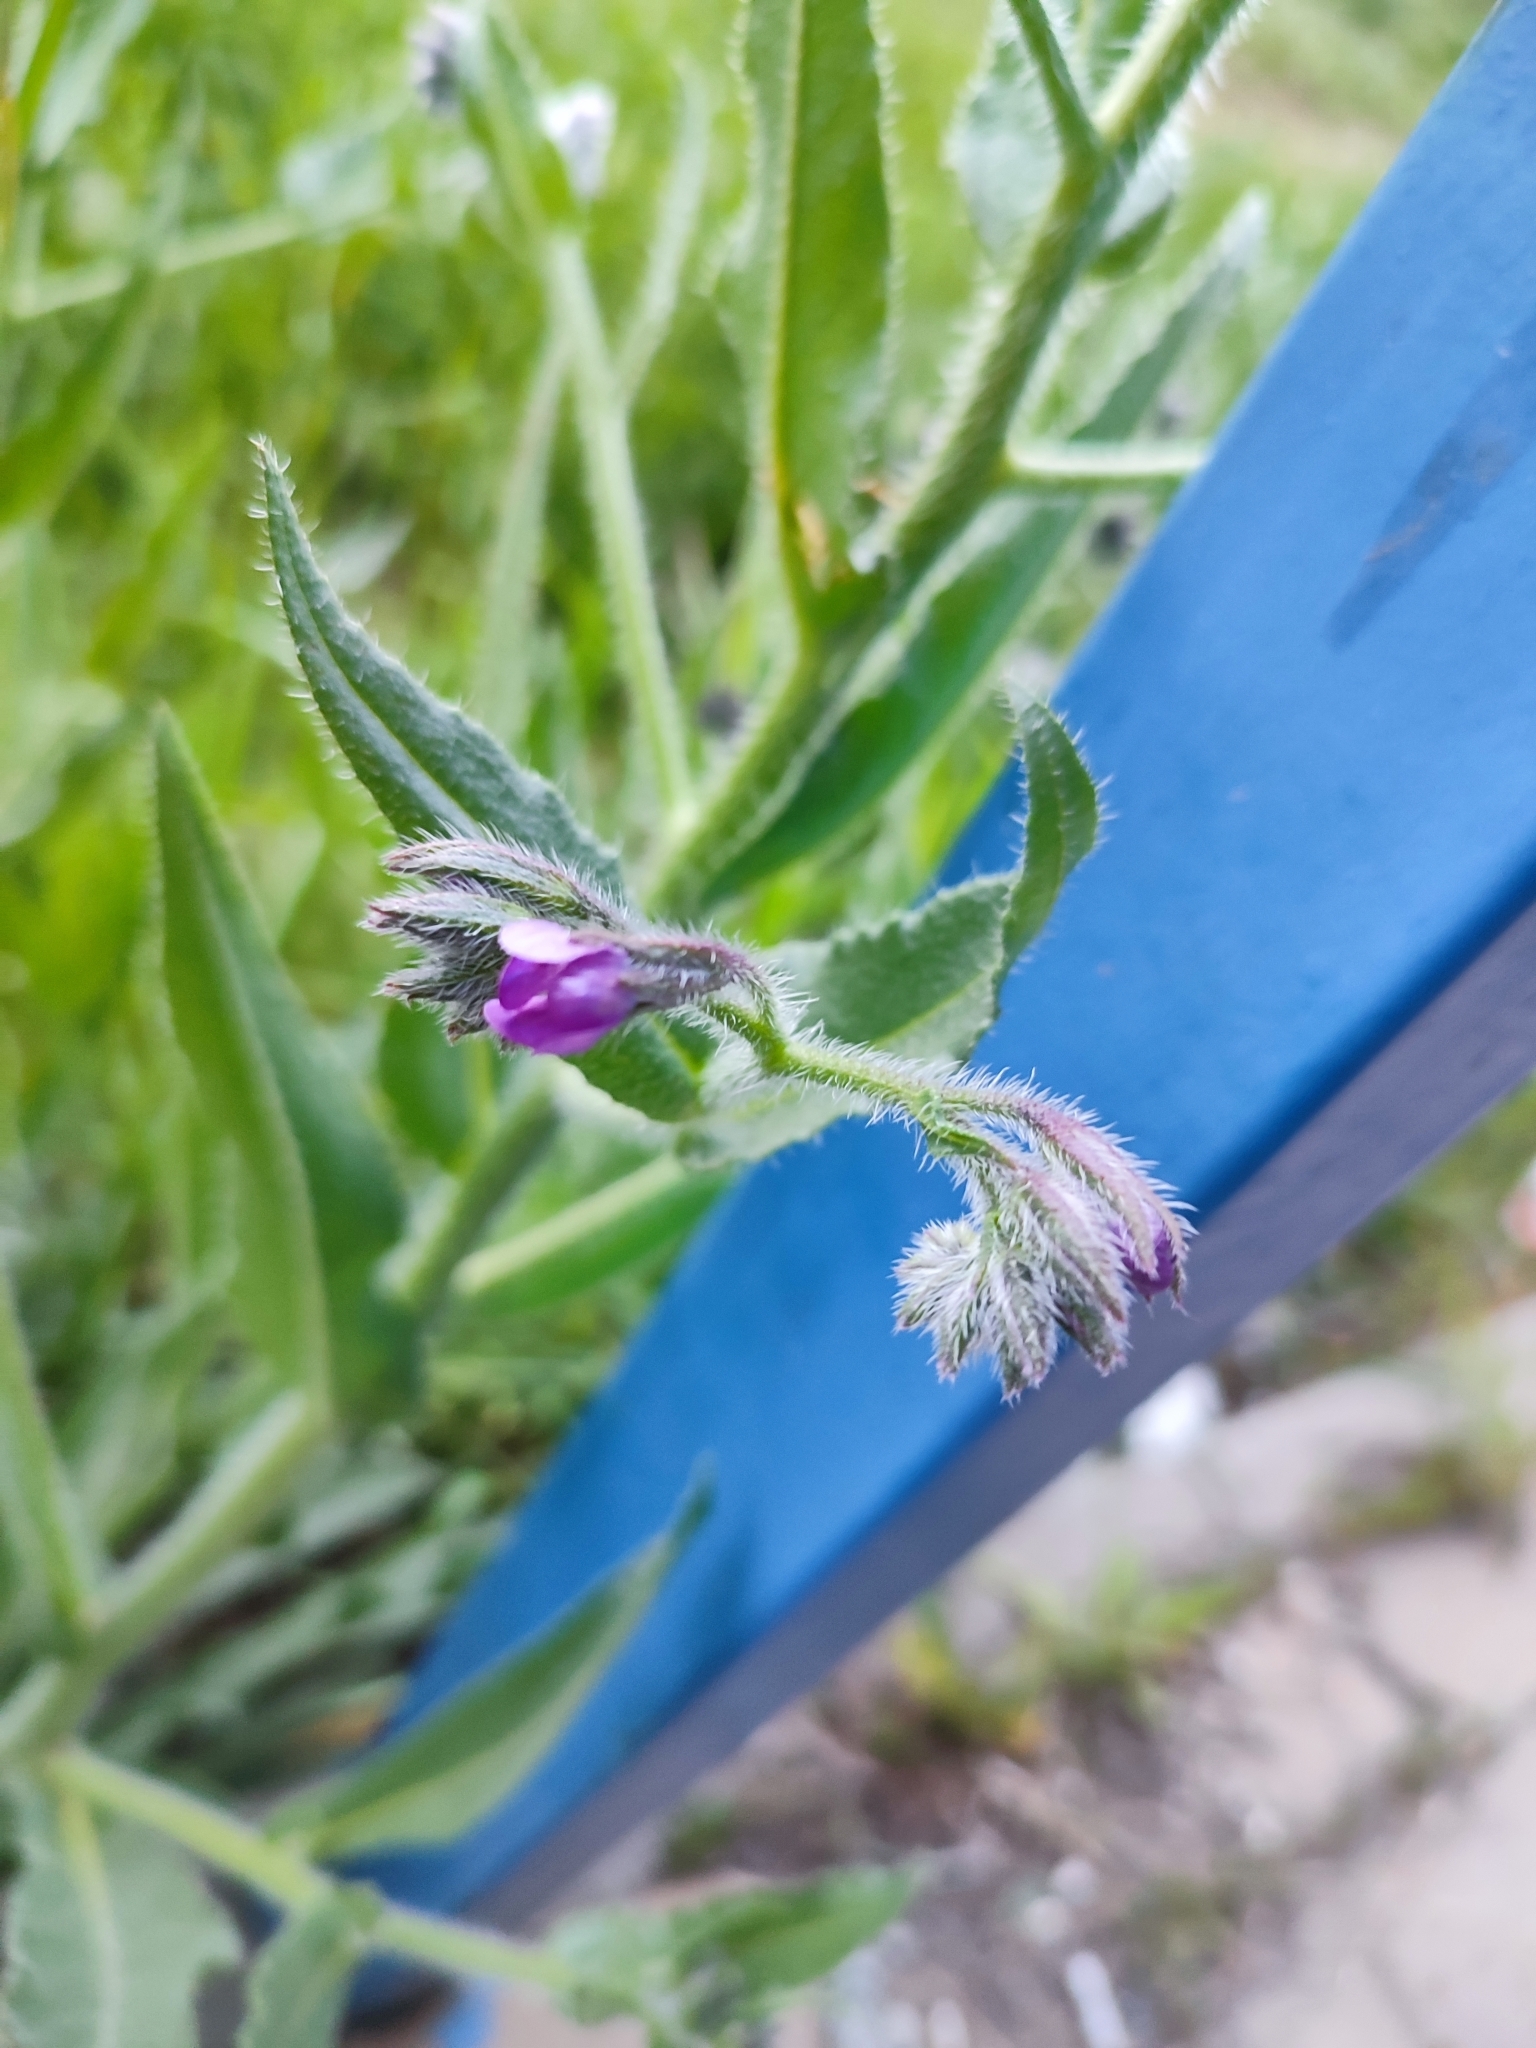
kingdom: Plantae
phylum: Tracheophyta
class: Magnoliopsida
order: Boraginales
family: Boraginaceae
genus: Anchusa
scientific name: Anchusa azurea
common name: Garden anchusa
